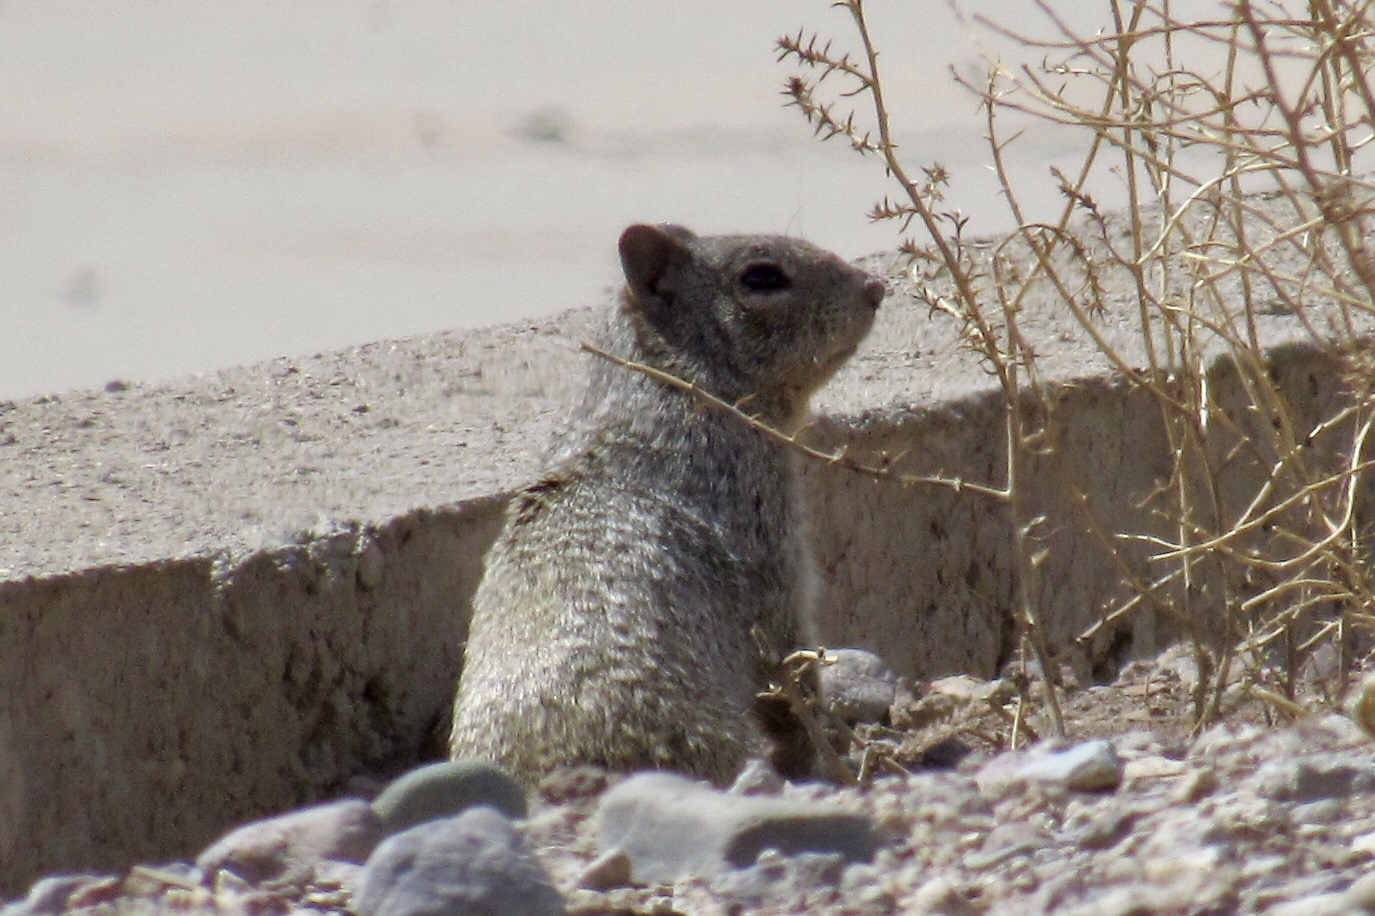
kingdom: Animalia
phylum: Chordata
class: Mammalia
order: Rodentia
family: Sciuridae
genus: Otospermophilus
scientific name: Otospermophilus variegatus
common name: Rock squirrel
